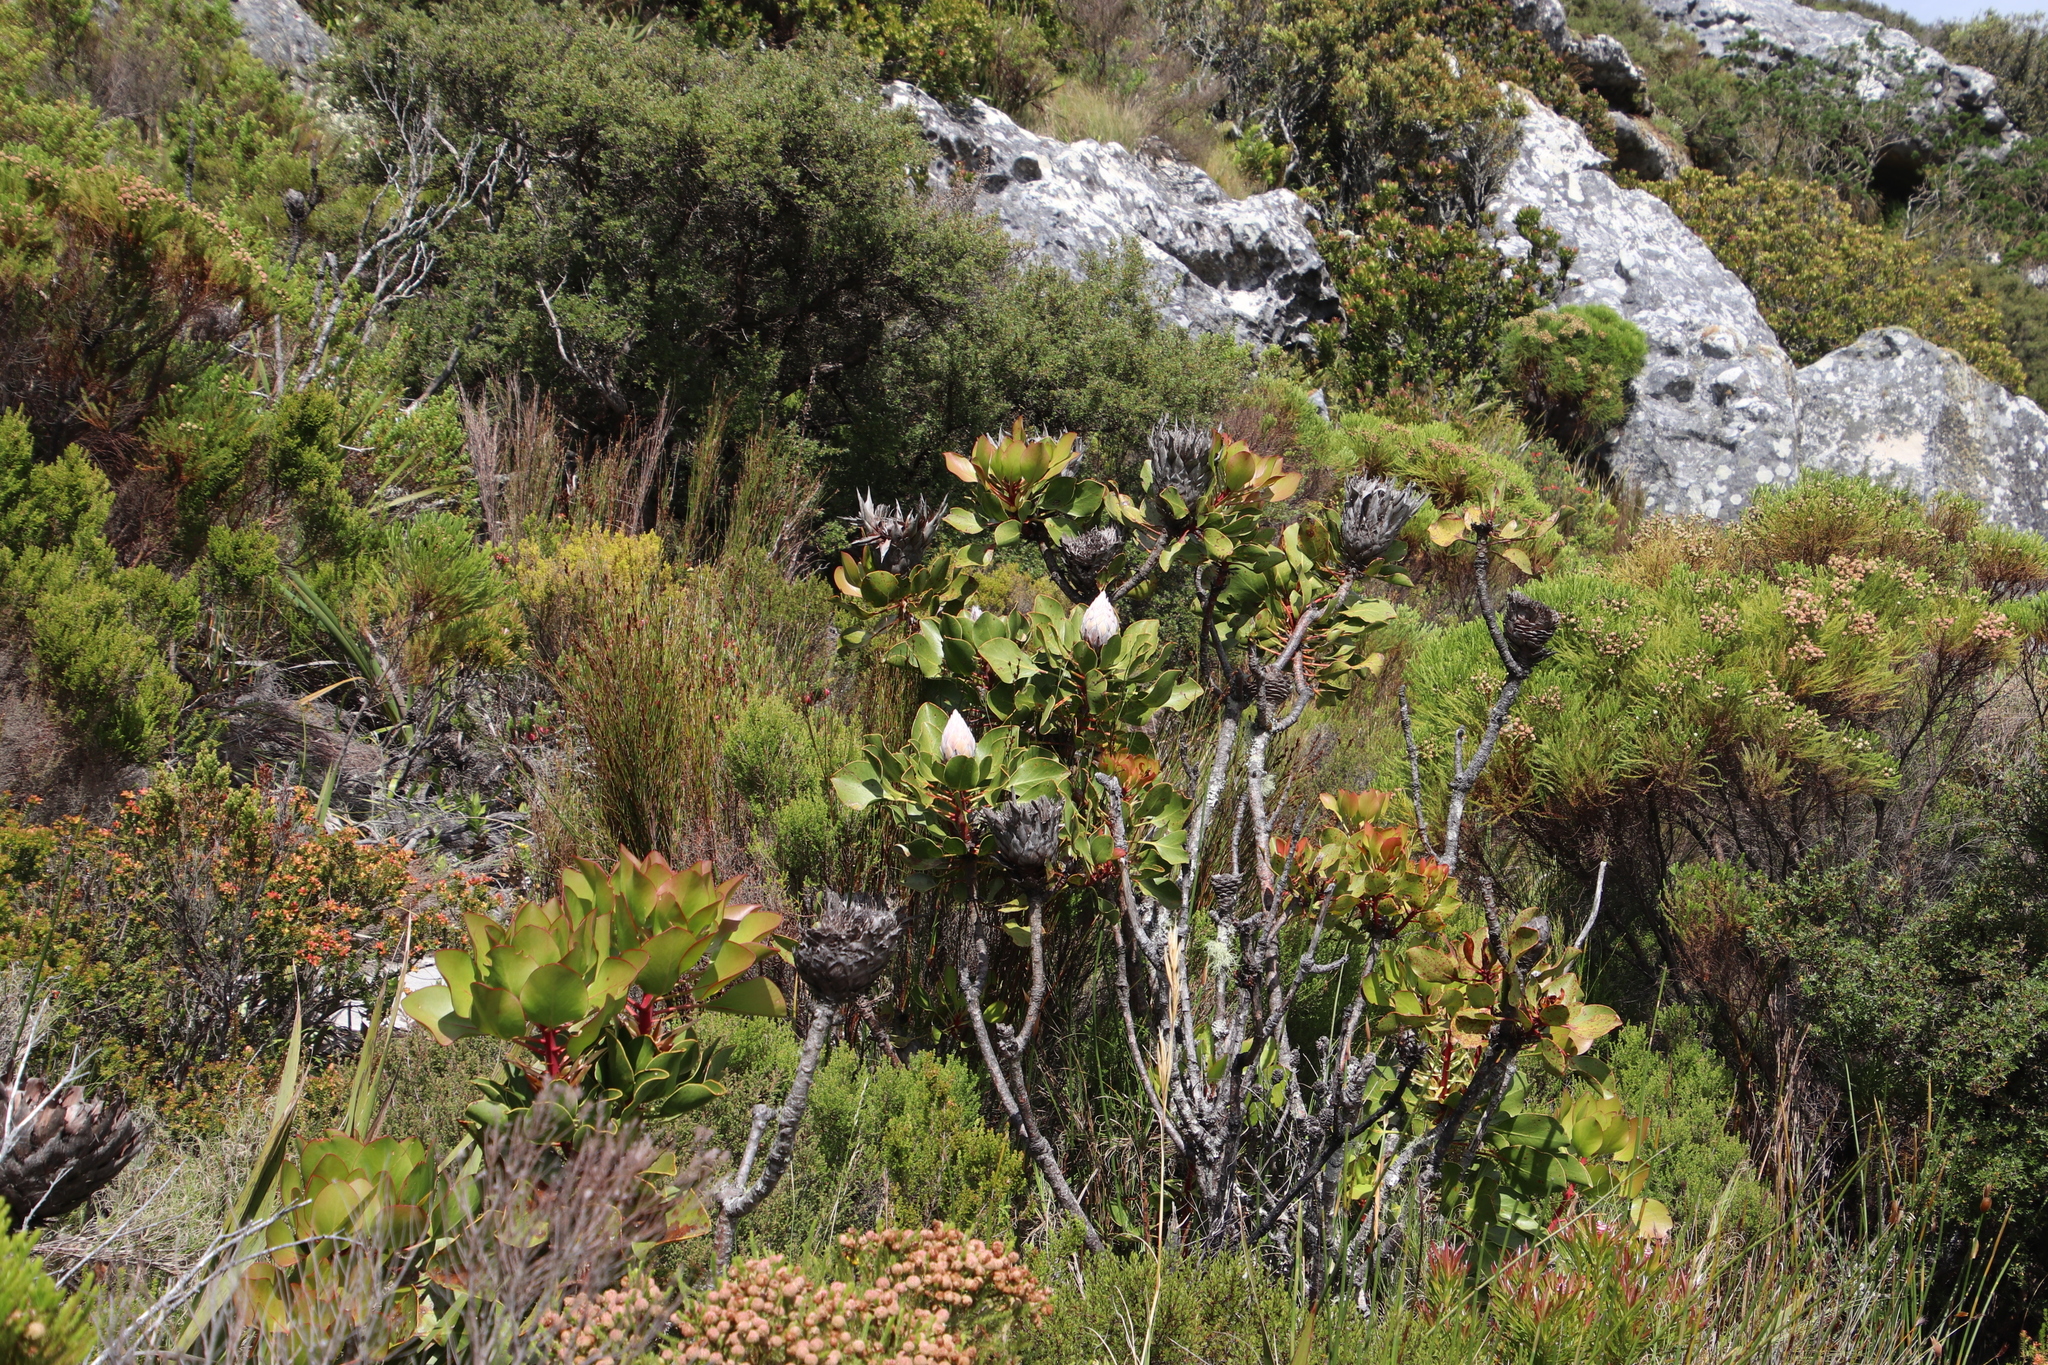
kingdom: Plantae
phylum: Tracheophyta
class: Magnoliopsida
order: Proteales
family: Proteaceae
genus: Protea
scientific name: Protea cynaroides
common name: King protea
